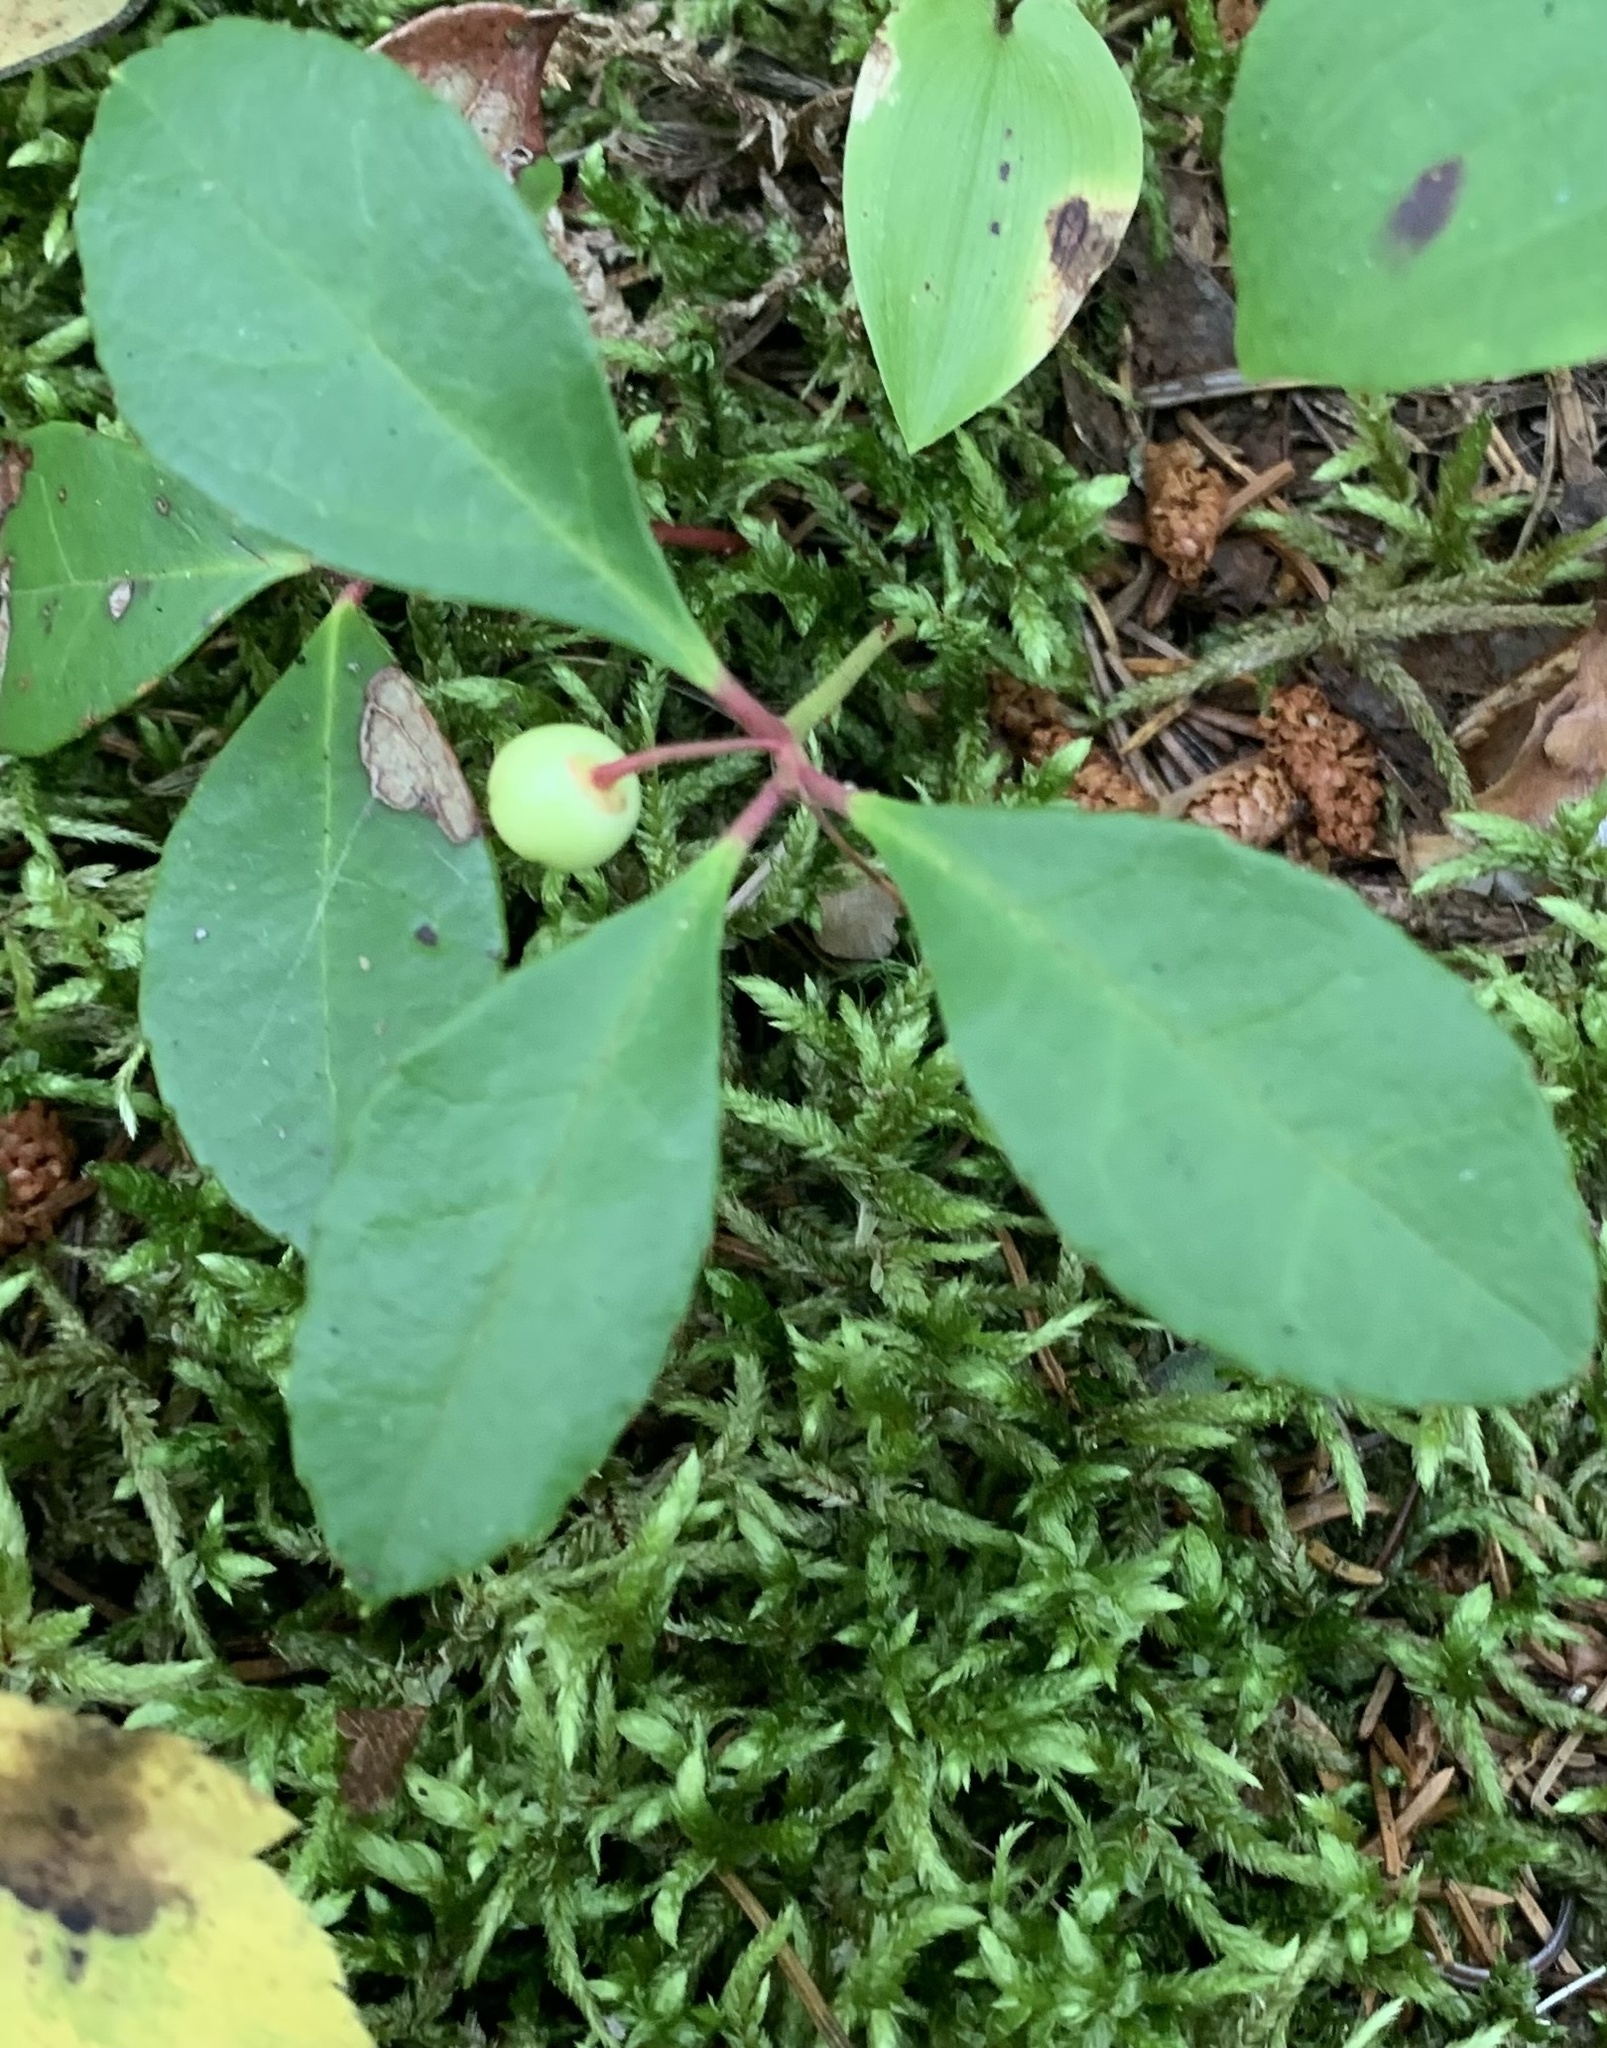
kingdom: Plantae
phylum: Tracheophyta
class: Magnoliopsida
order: Ericales
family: Ericaceae
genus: Gaultheria
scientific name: Gaultheria procumbens
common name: Checkerberry
